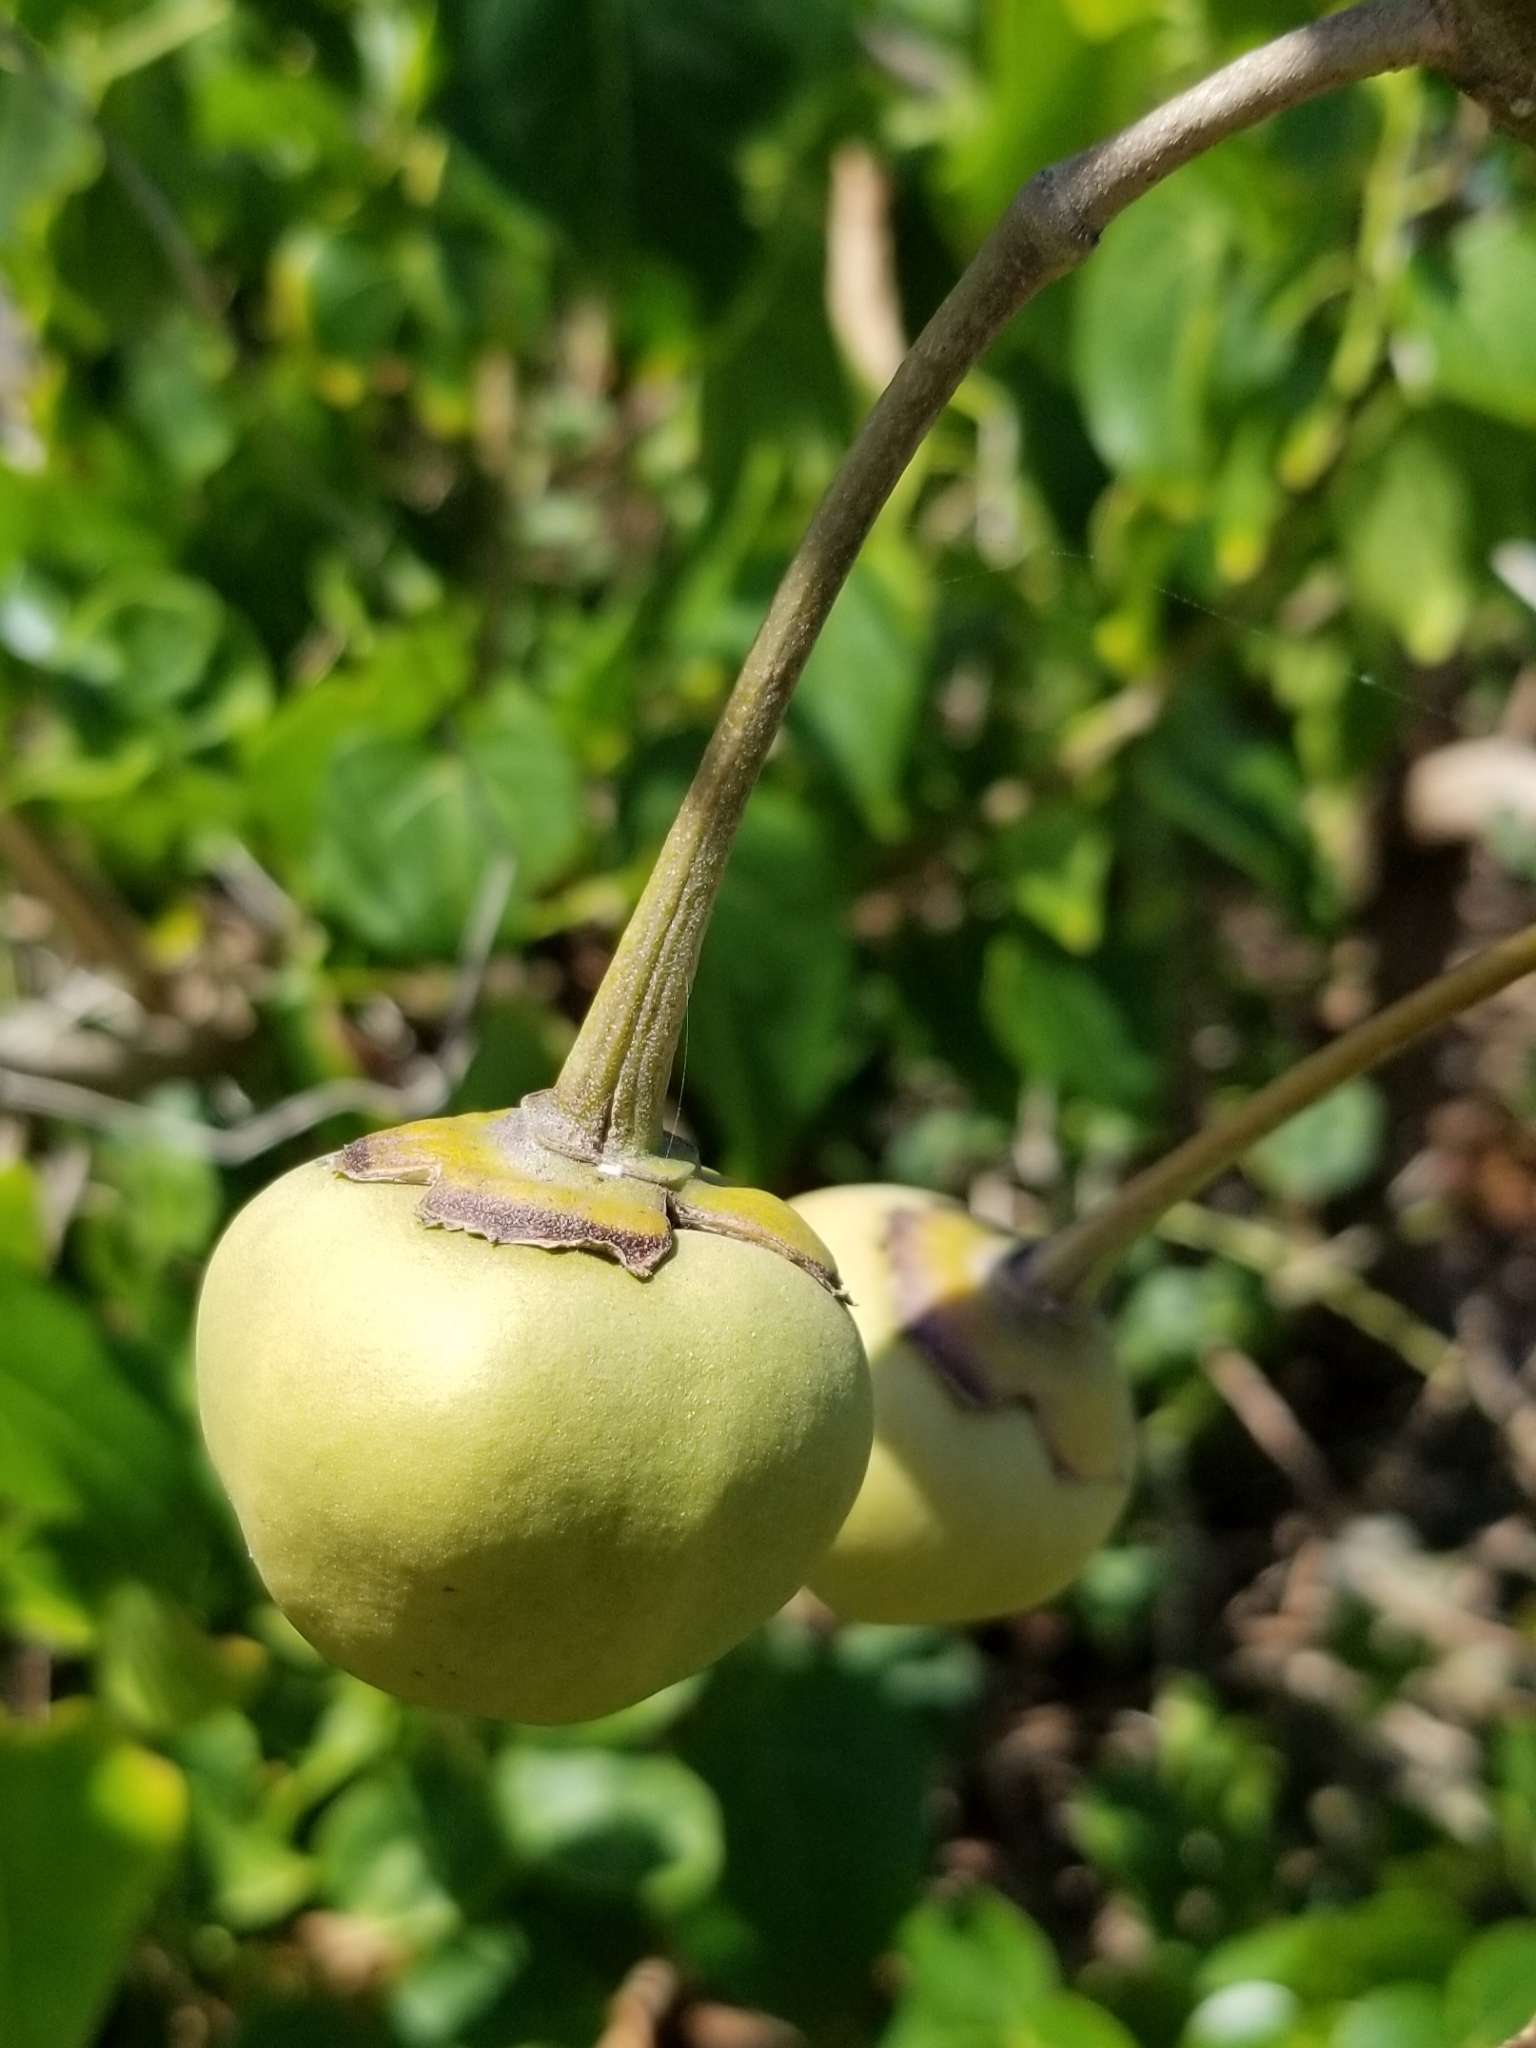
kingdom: Plantae
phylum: Tracheophyta
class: Magnoliopsida
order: Malvales
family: Malvaceae
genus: Thespesia
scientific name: Thespesia populnea
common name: Seaside mahoe
